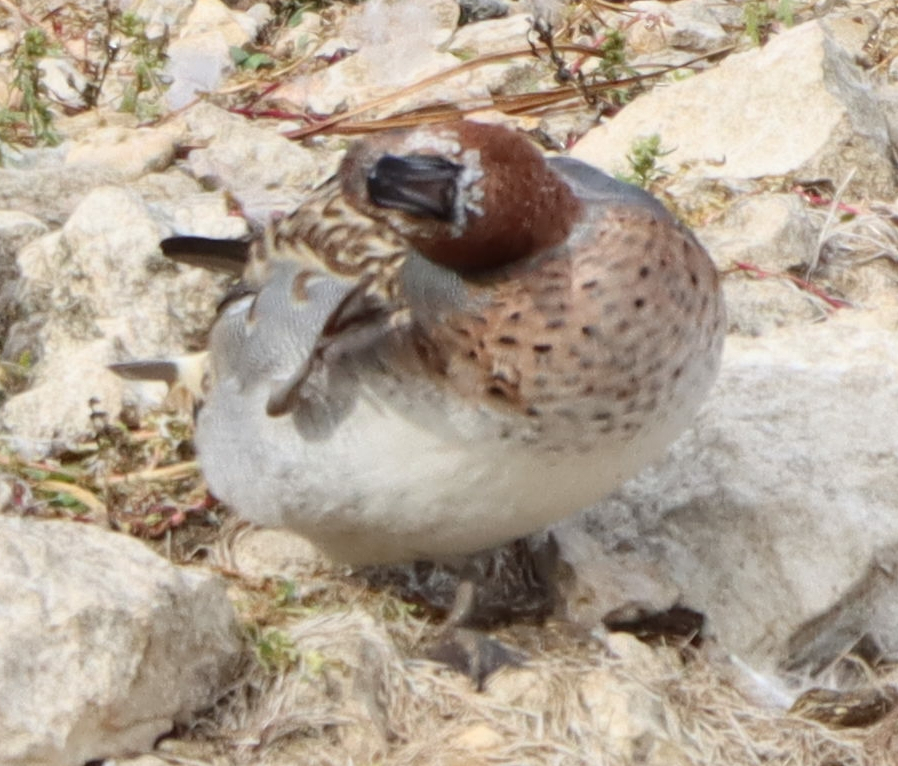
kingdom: Animalia
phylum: Chordata
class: Aves
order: Anseriformes
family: Anatidae
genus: Anas
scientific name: Anas crecca
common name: Eurasian teal
